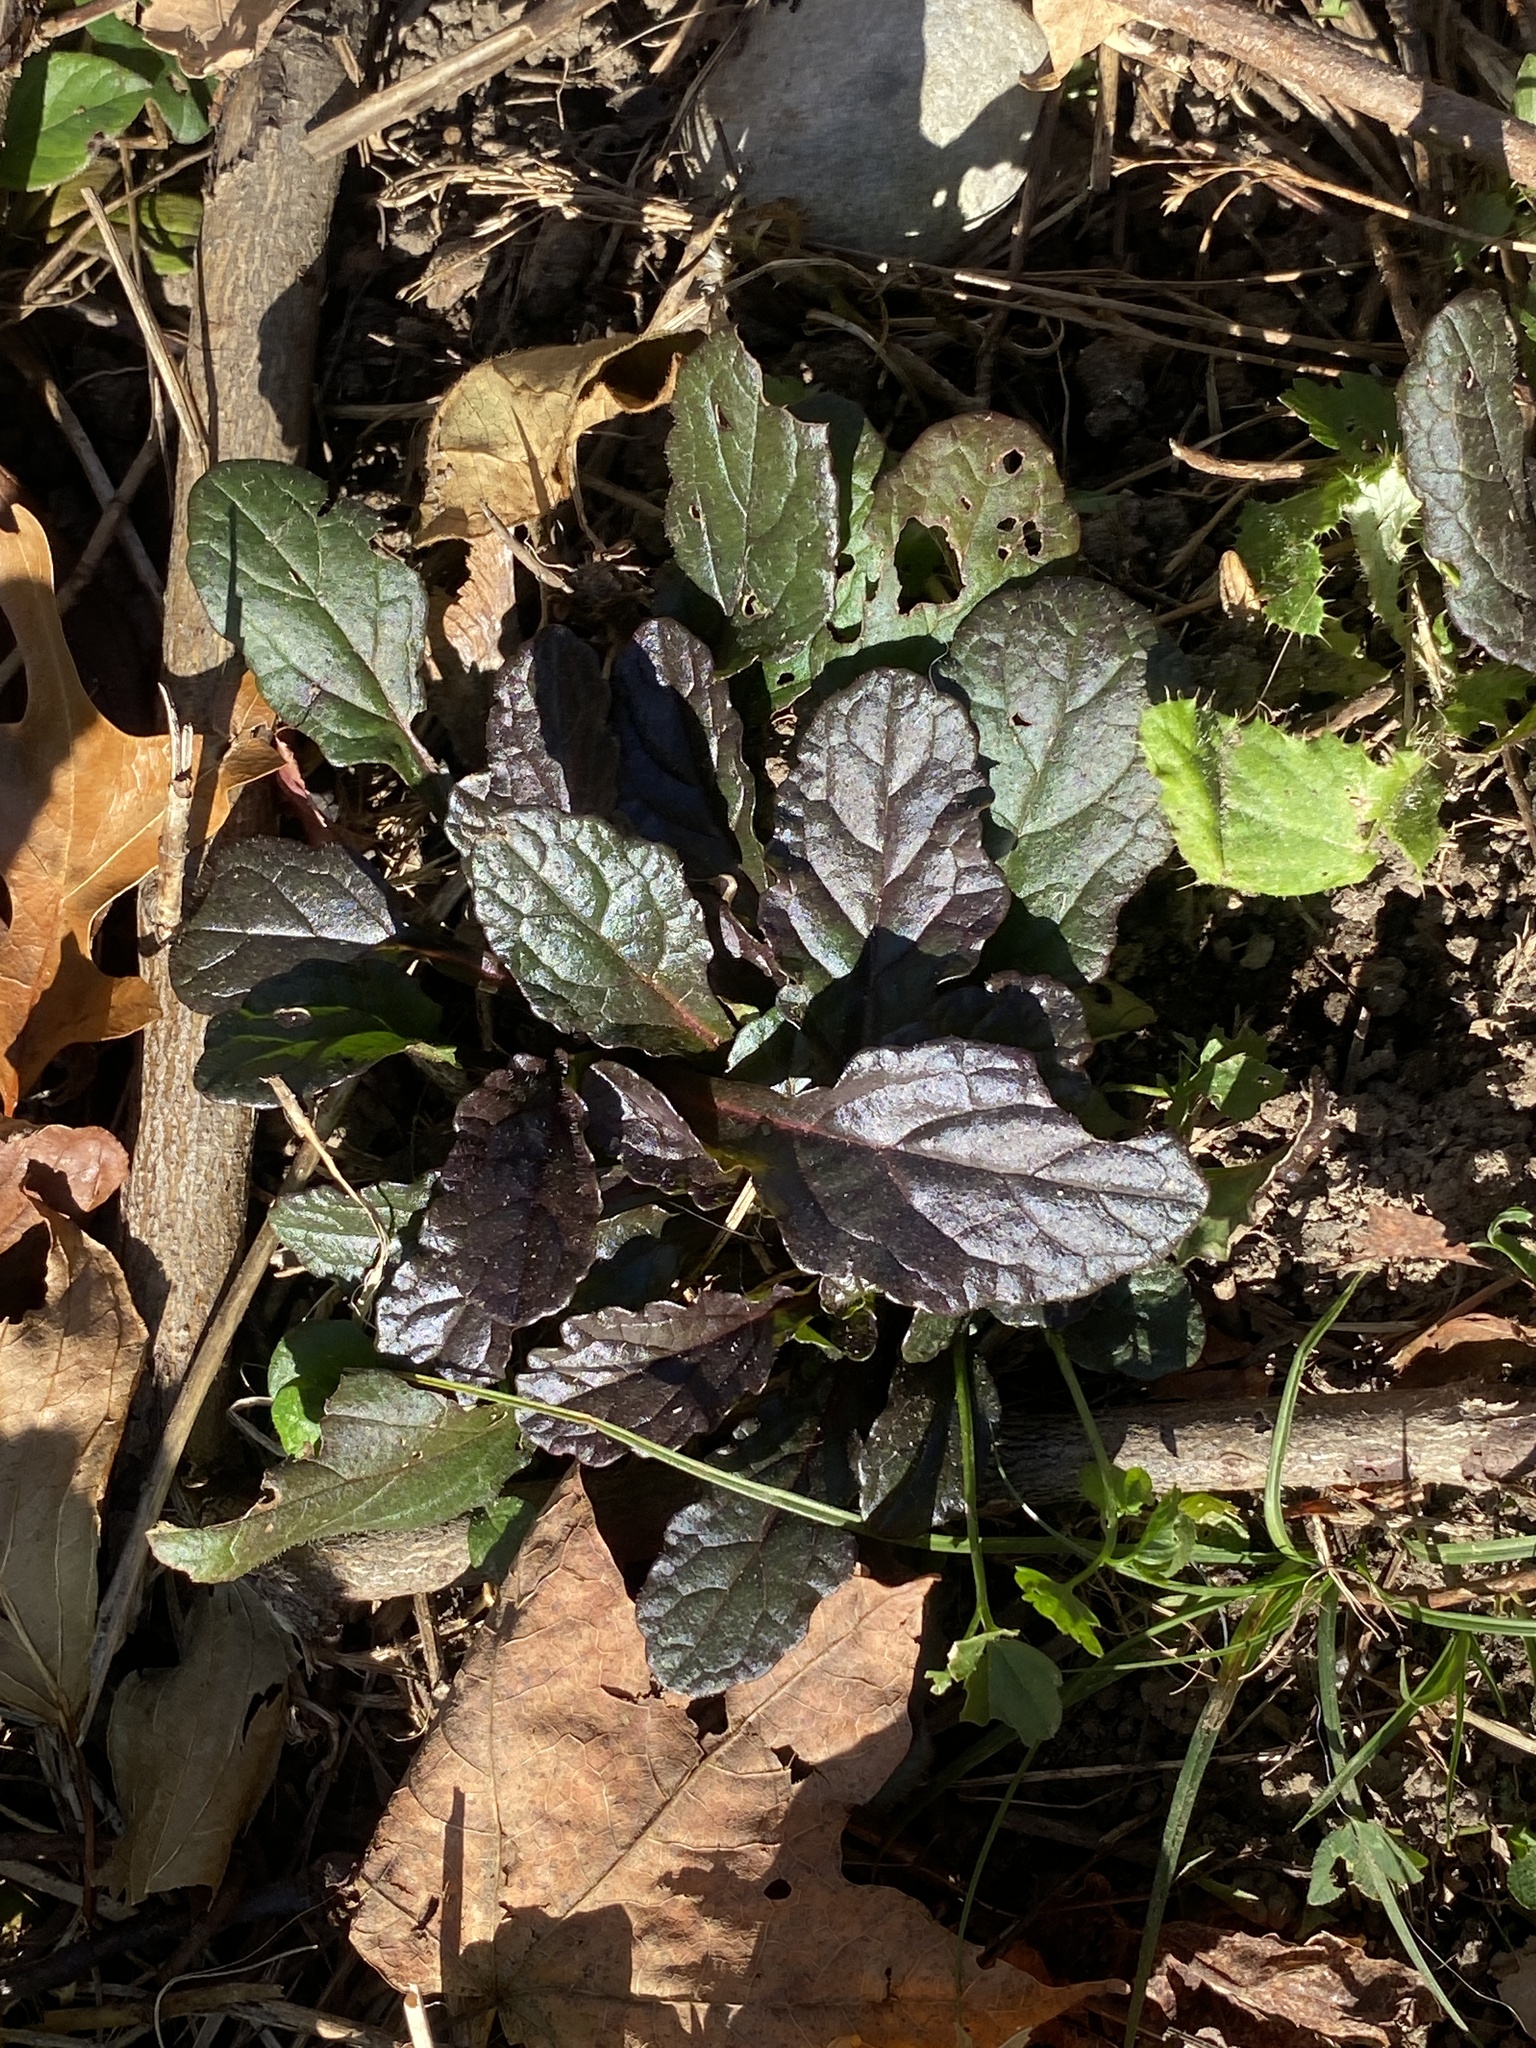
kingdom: Plantae
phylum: Tracheophyta
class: Magnoliopsida
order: Lamiales
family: Lamiaceae
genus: Ajuga
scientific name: Ajuga reptans
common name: Bugle
